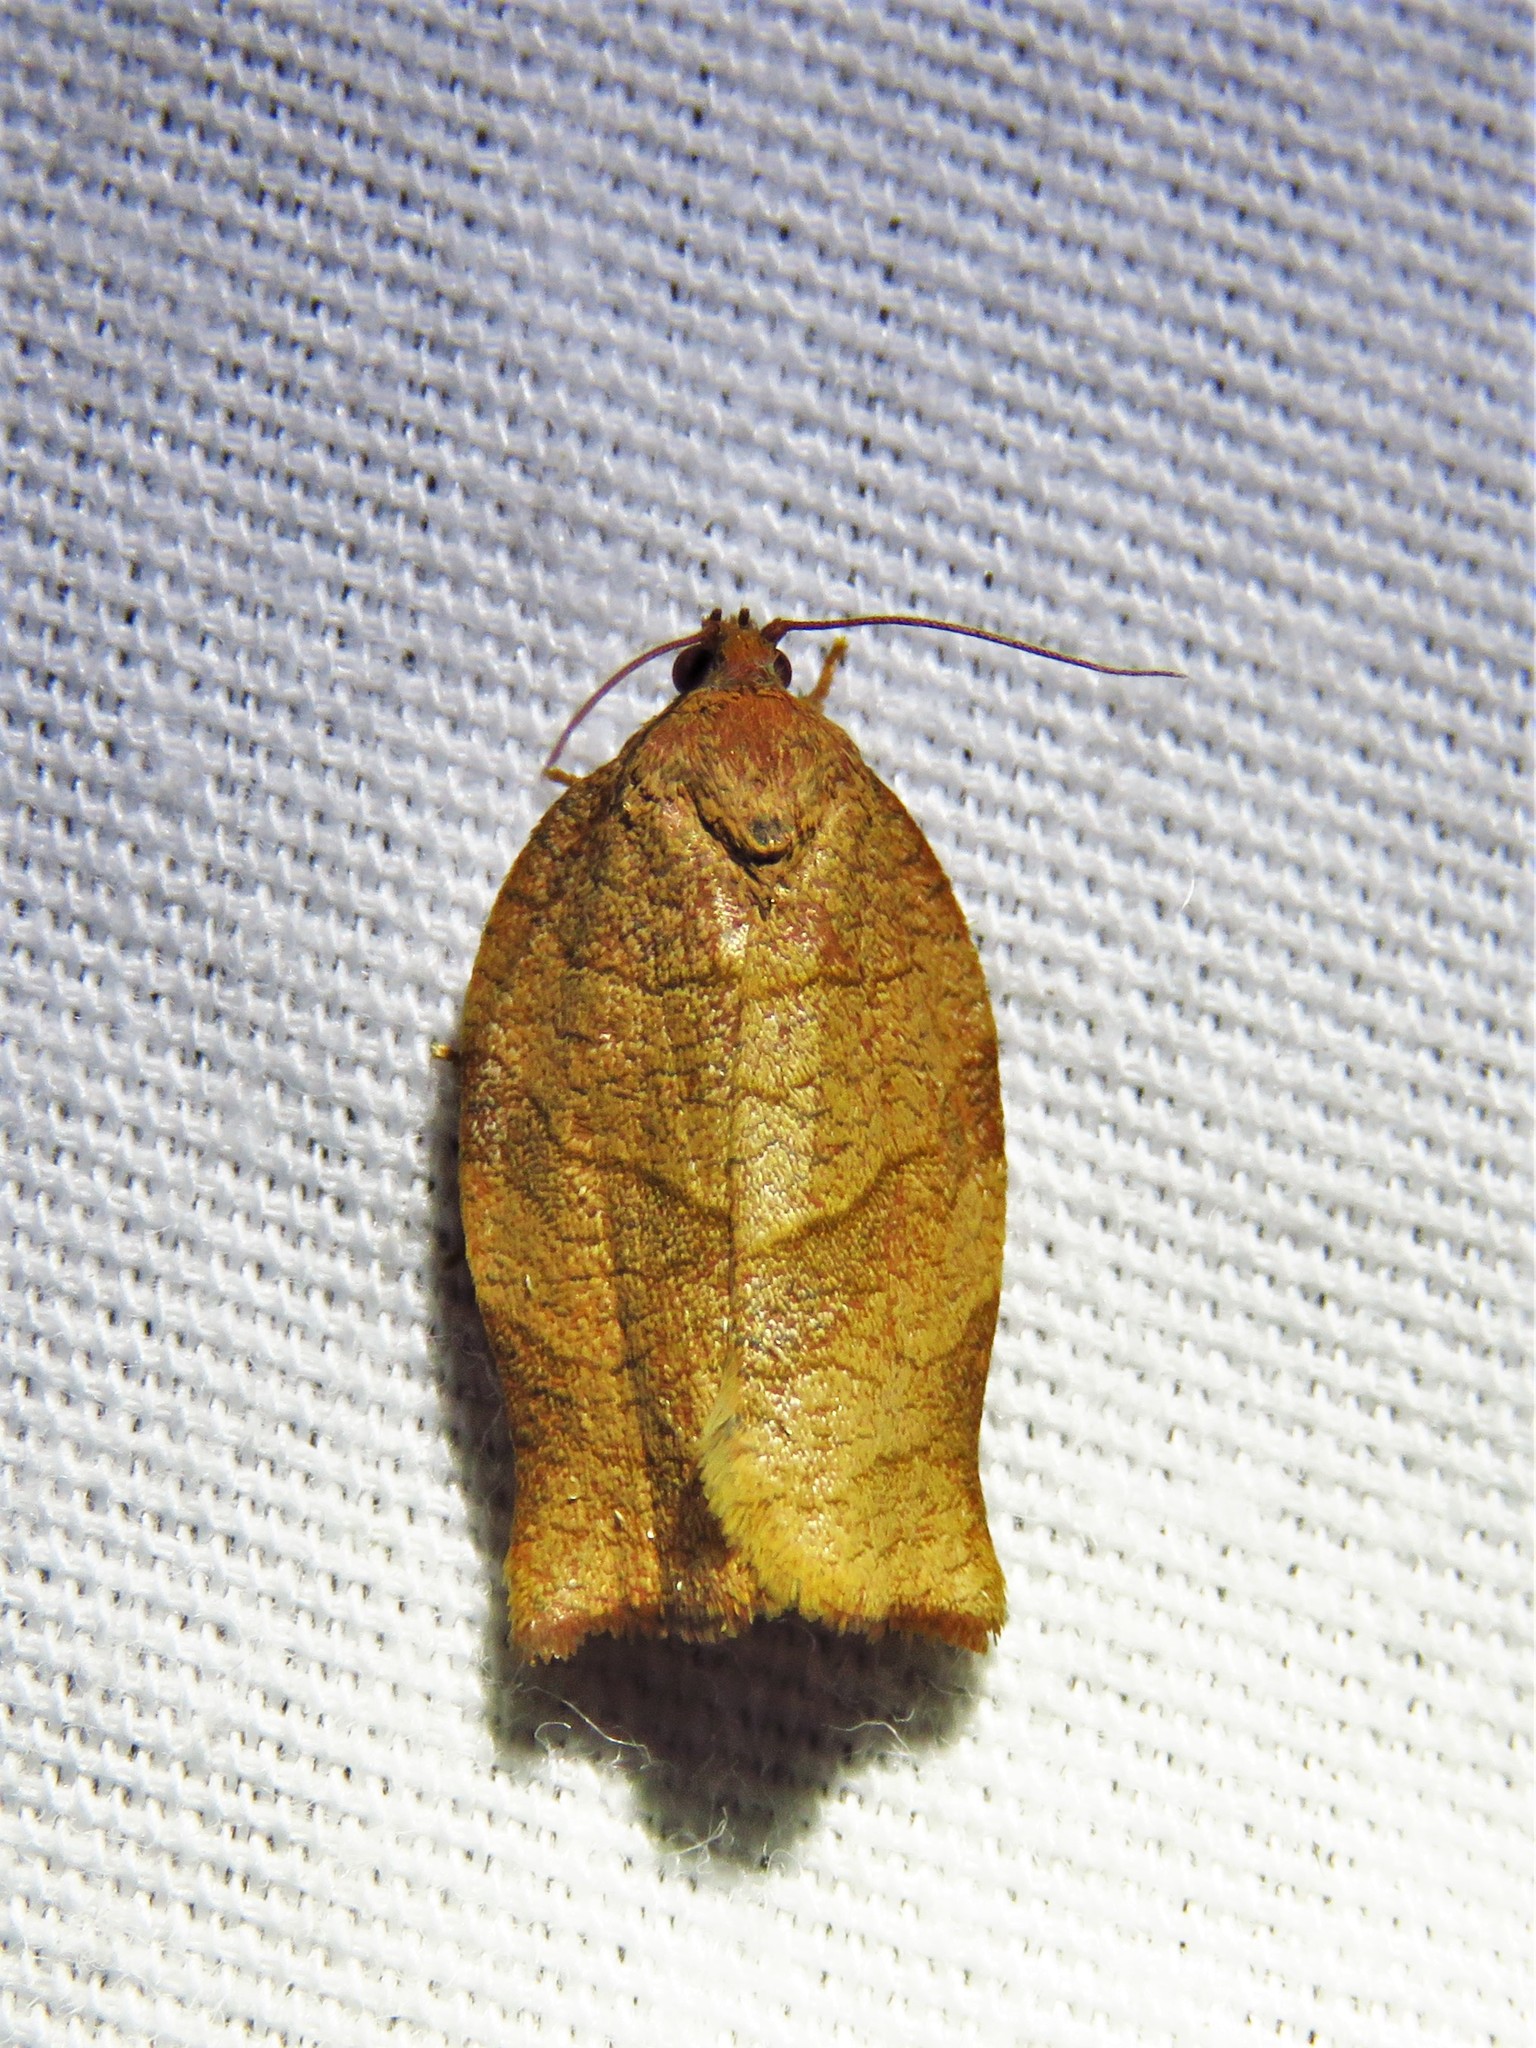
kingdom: Animalia
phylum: Arthropoda
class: Insecta
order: Lepidoptera
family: Tortricidae
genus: Choristoneura
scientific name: Choristoneura rosaceana
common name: Oblique-banded leafroller moth
